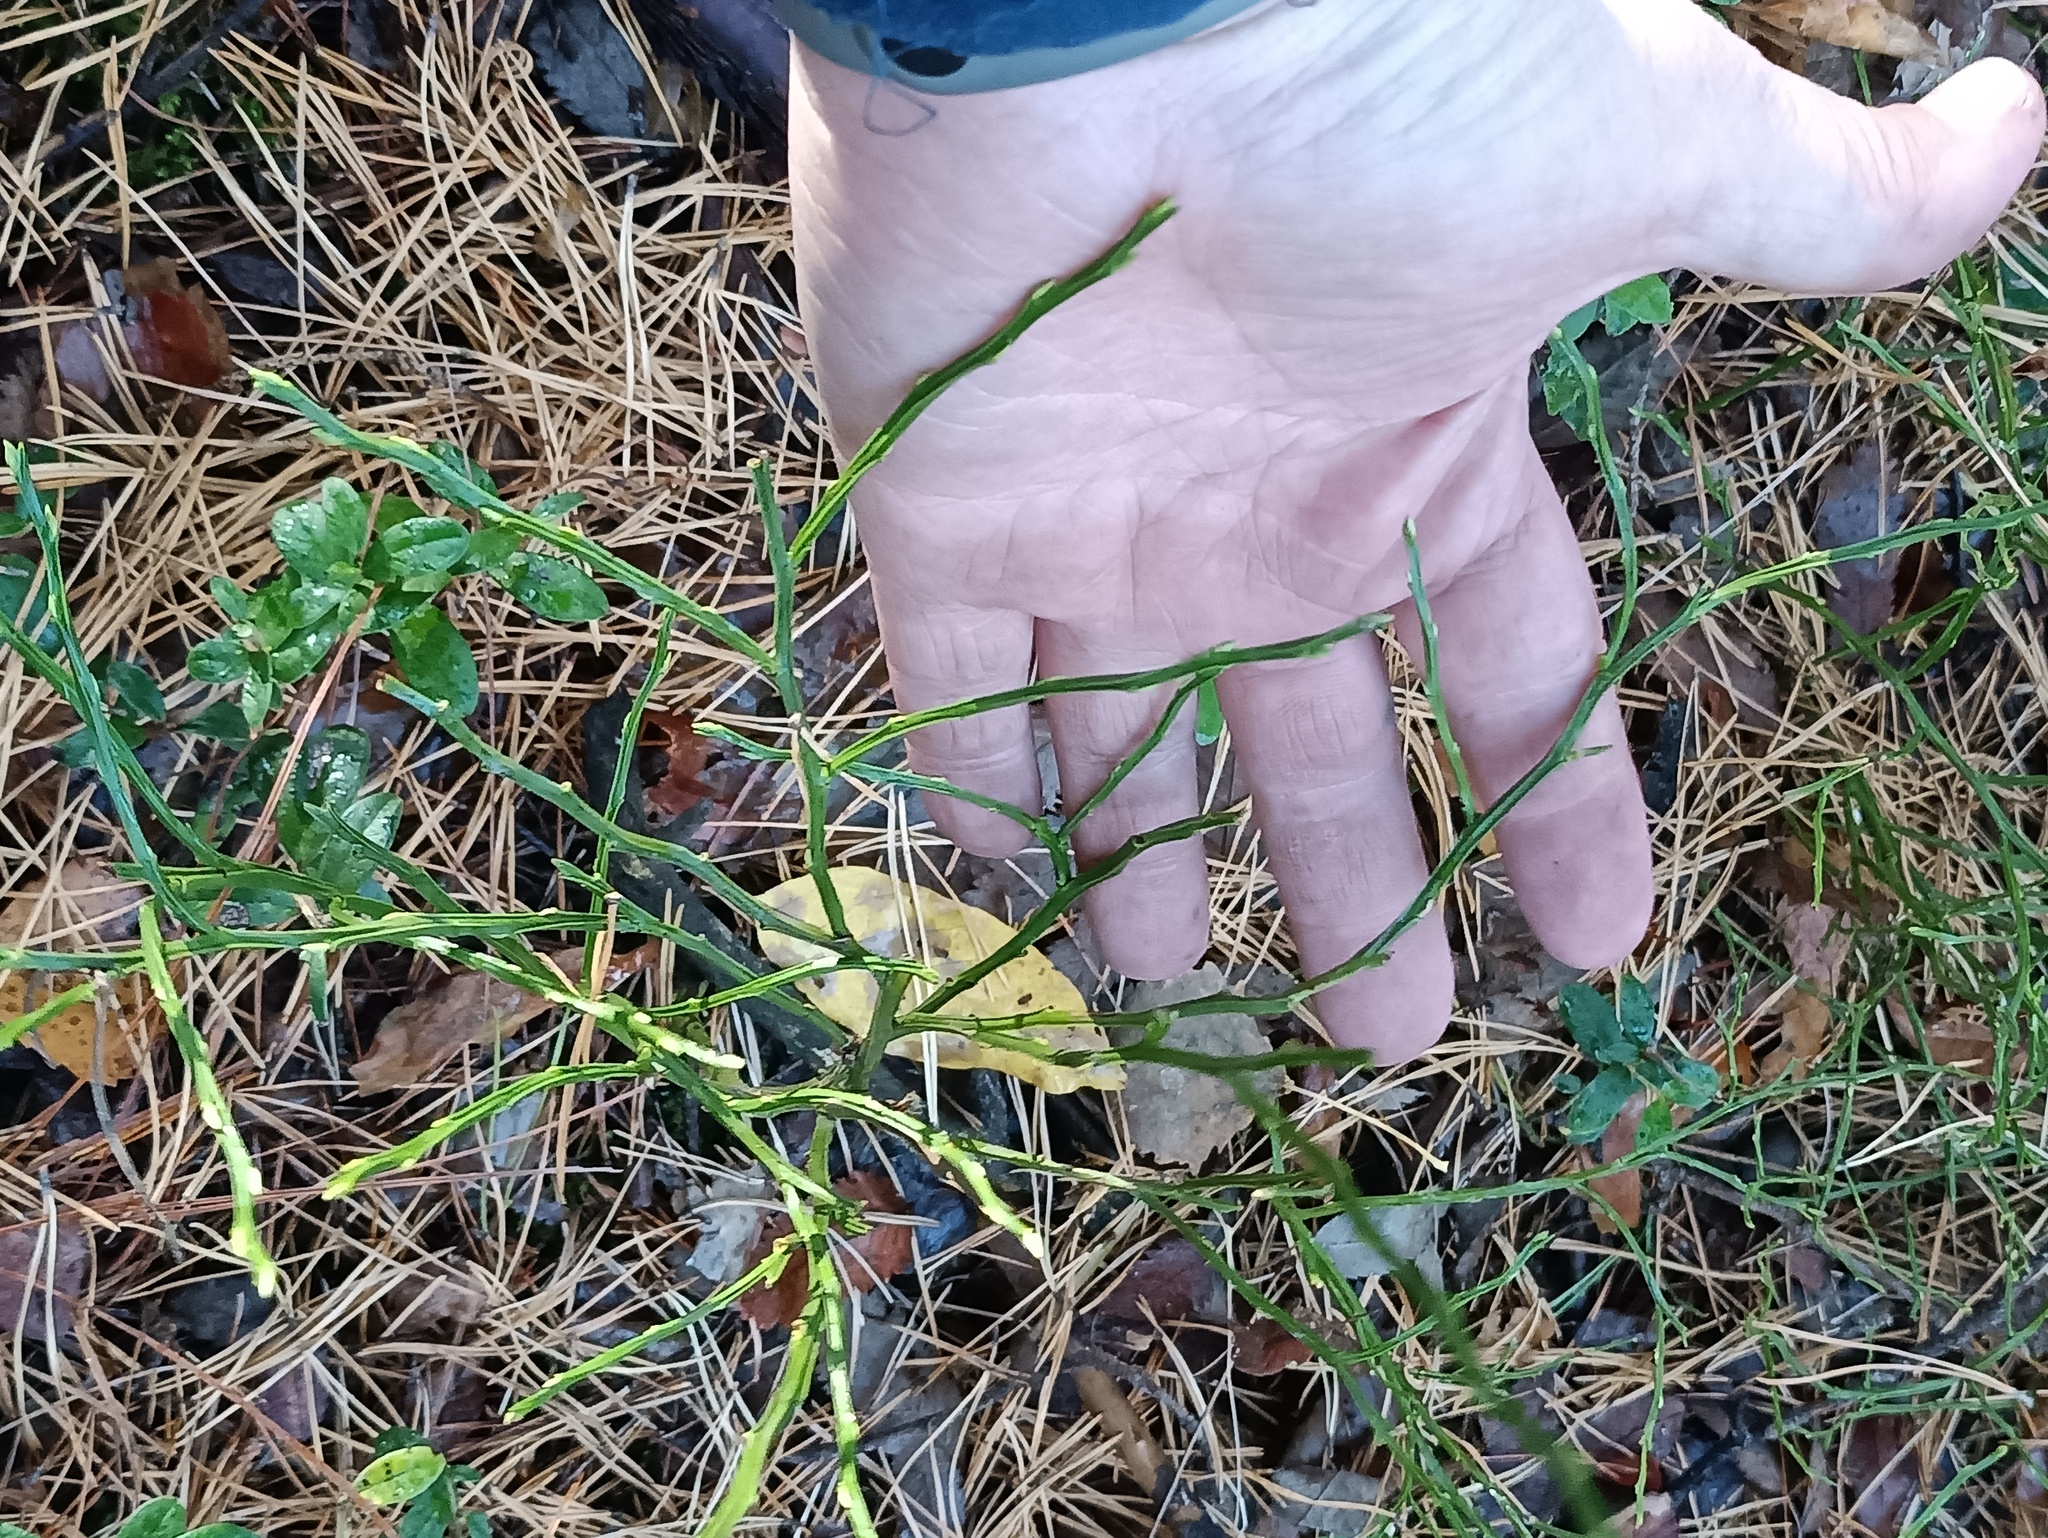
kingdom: Plantae
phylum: Tracheophyta
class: Magnoliopsida
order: Ericales
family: Ericaceae
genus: Vaccinium
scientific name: Vaccinium myrtillus
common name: Bilberry
